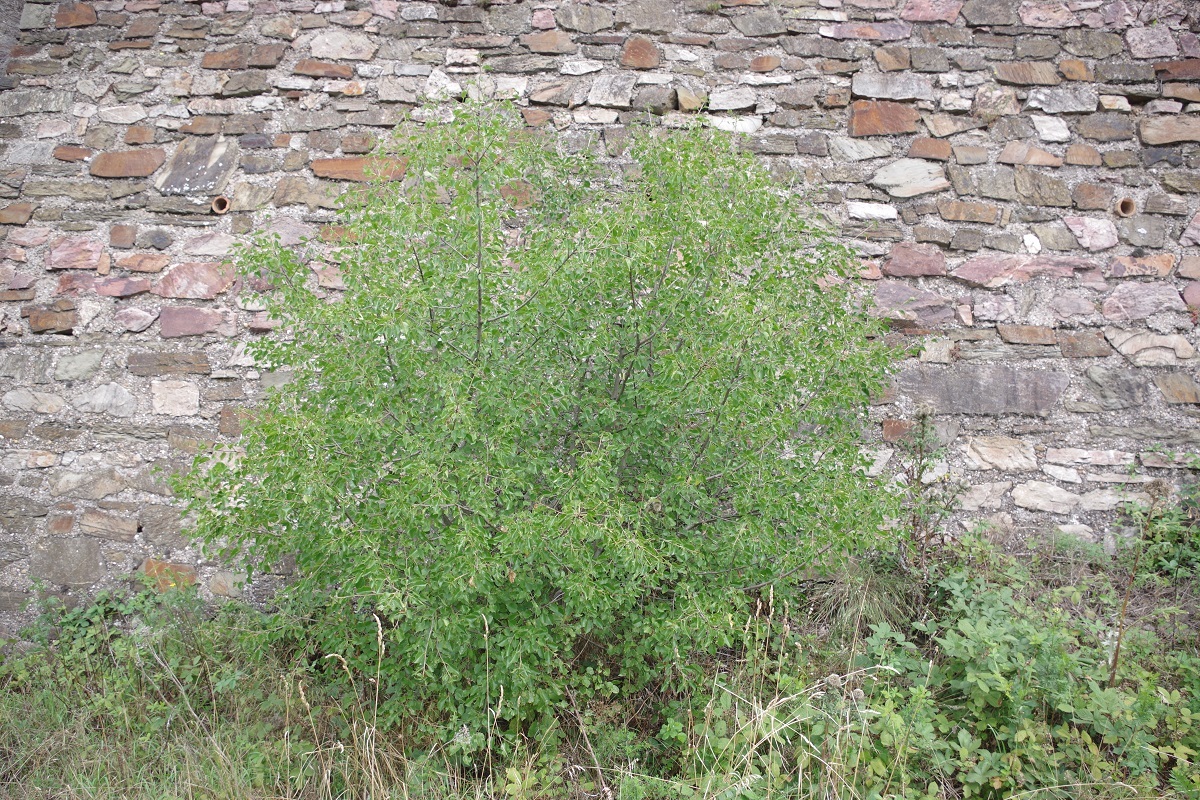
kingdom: Plantae
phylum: Tracheophyta
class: Magnoliopsida
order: Rosales
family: Rosaceae
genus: Prunus
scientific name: Prunus mahaleb
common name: Mahaleb cherry
